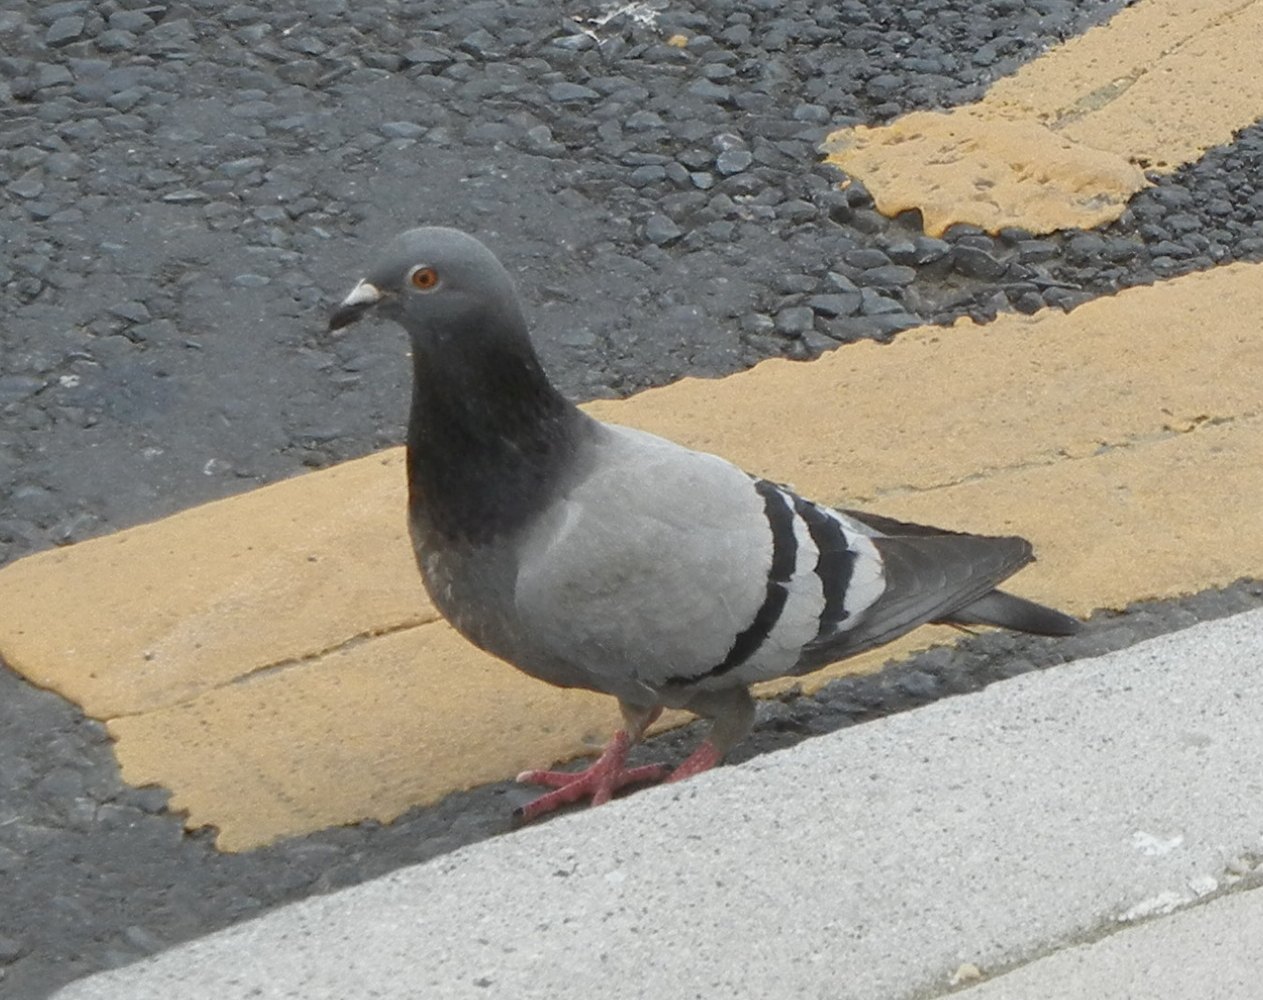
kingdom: Animalia
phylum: Chordata
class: Aves
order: Columbiformes
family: Columbidae
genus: Columba
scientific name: Columba livia
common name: Rock pigeon
